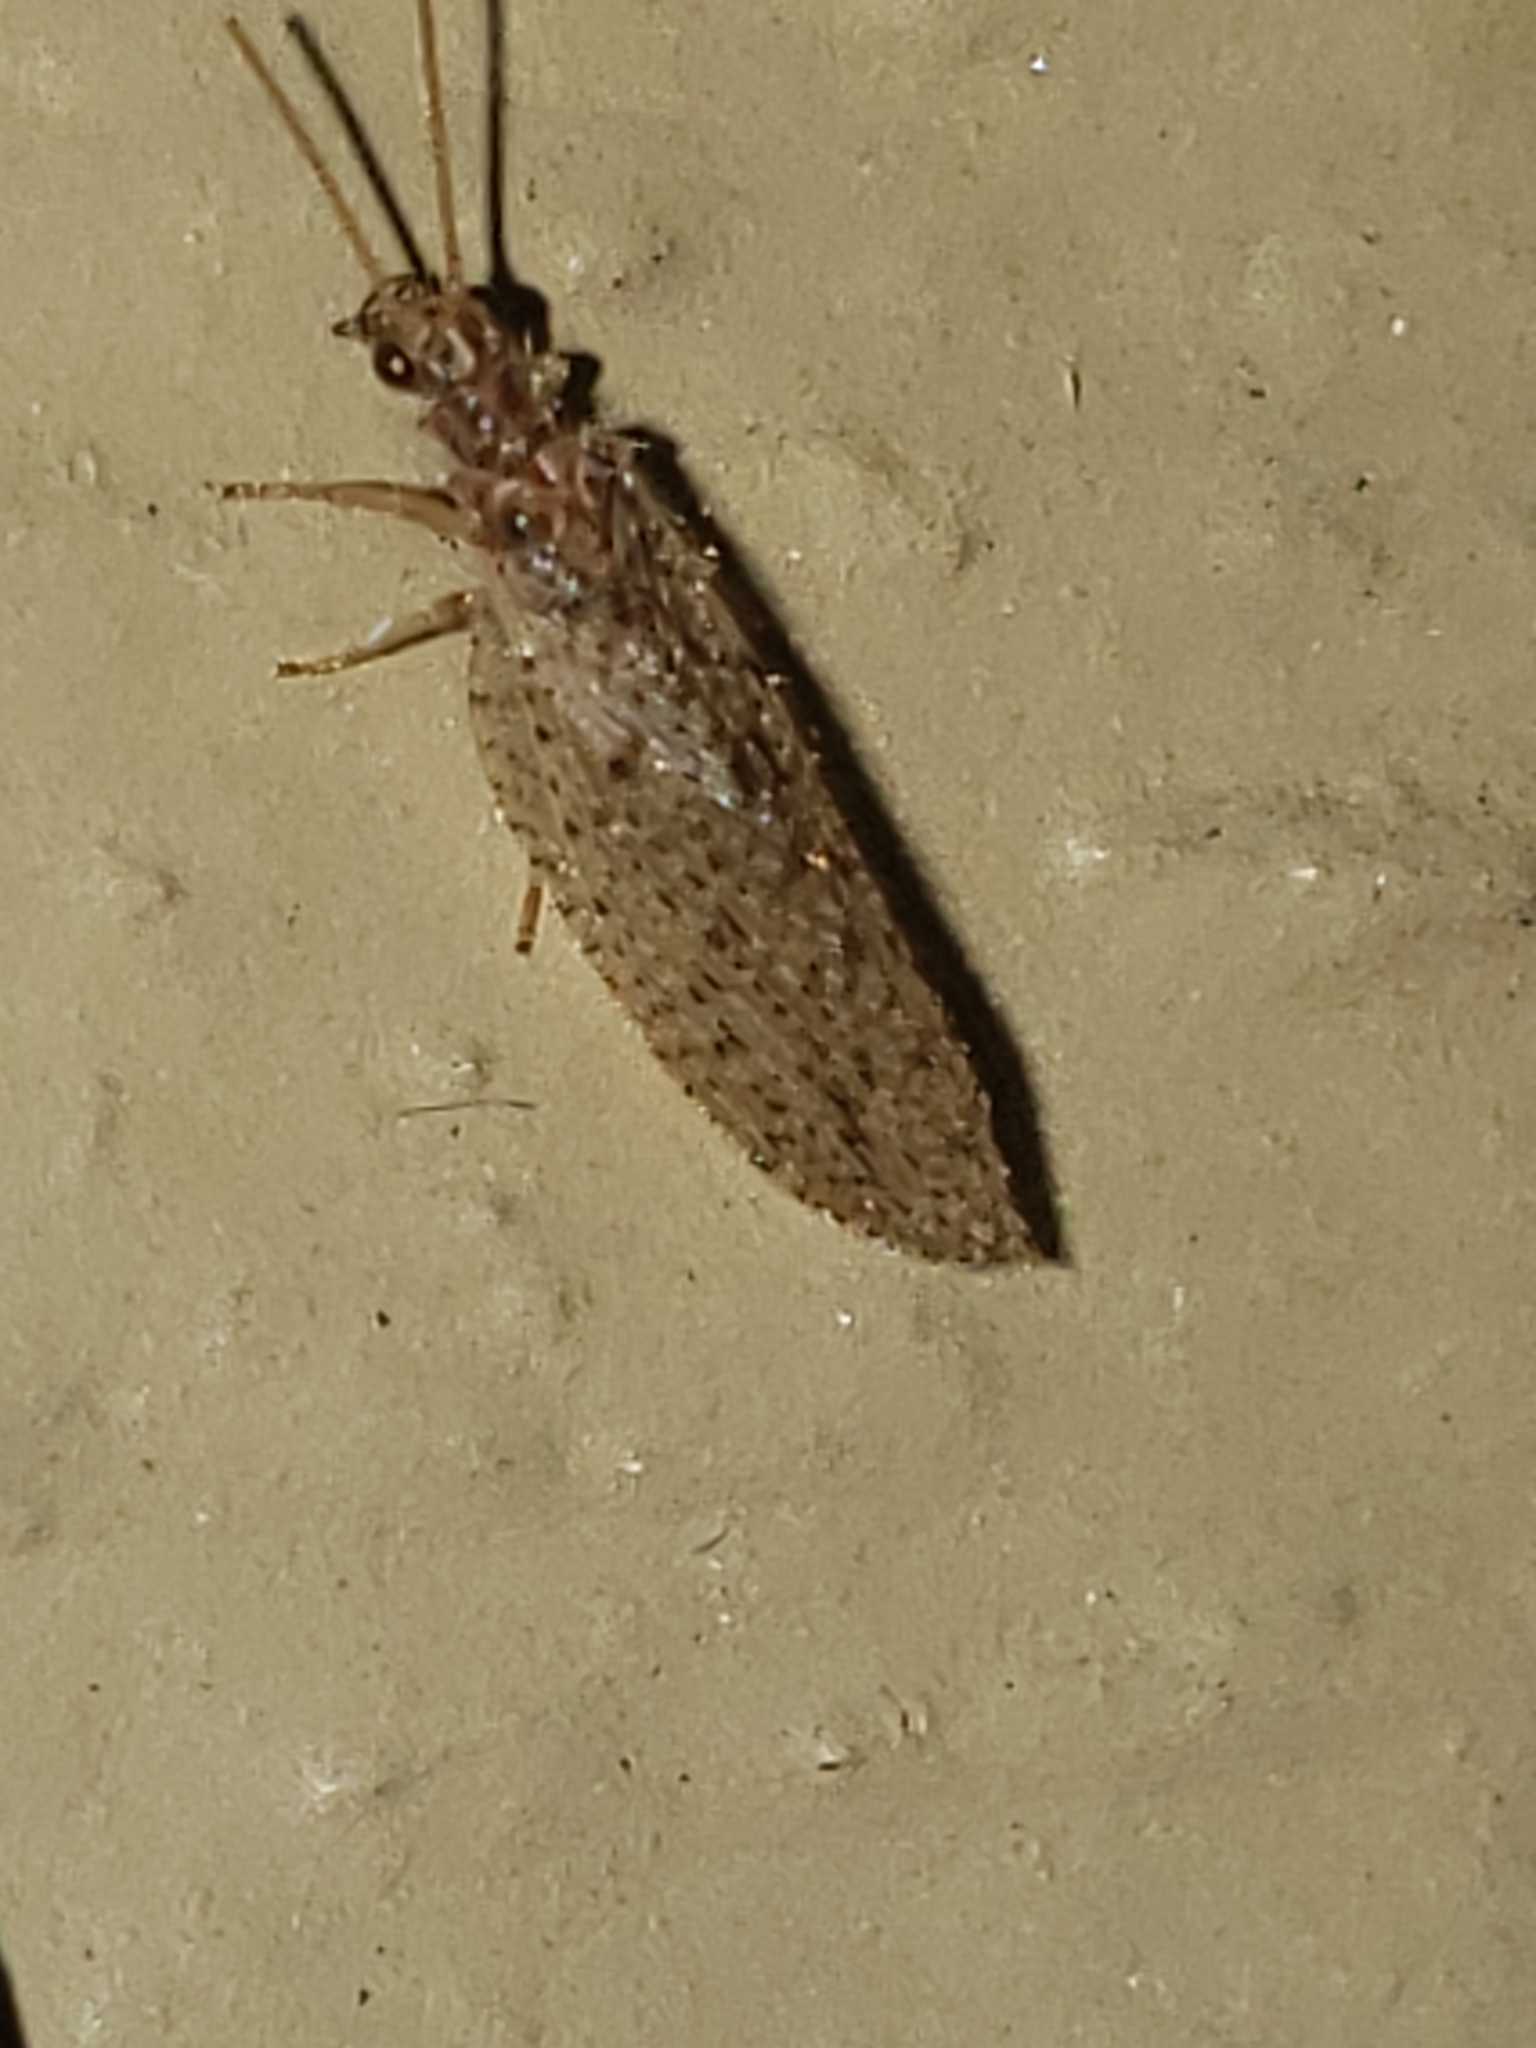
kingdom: Animalia
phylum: Arthropoda
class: Insecta
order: Neuroptera
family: Hemerobiidae
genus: Micromus
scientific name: Micromus subanticus
